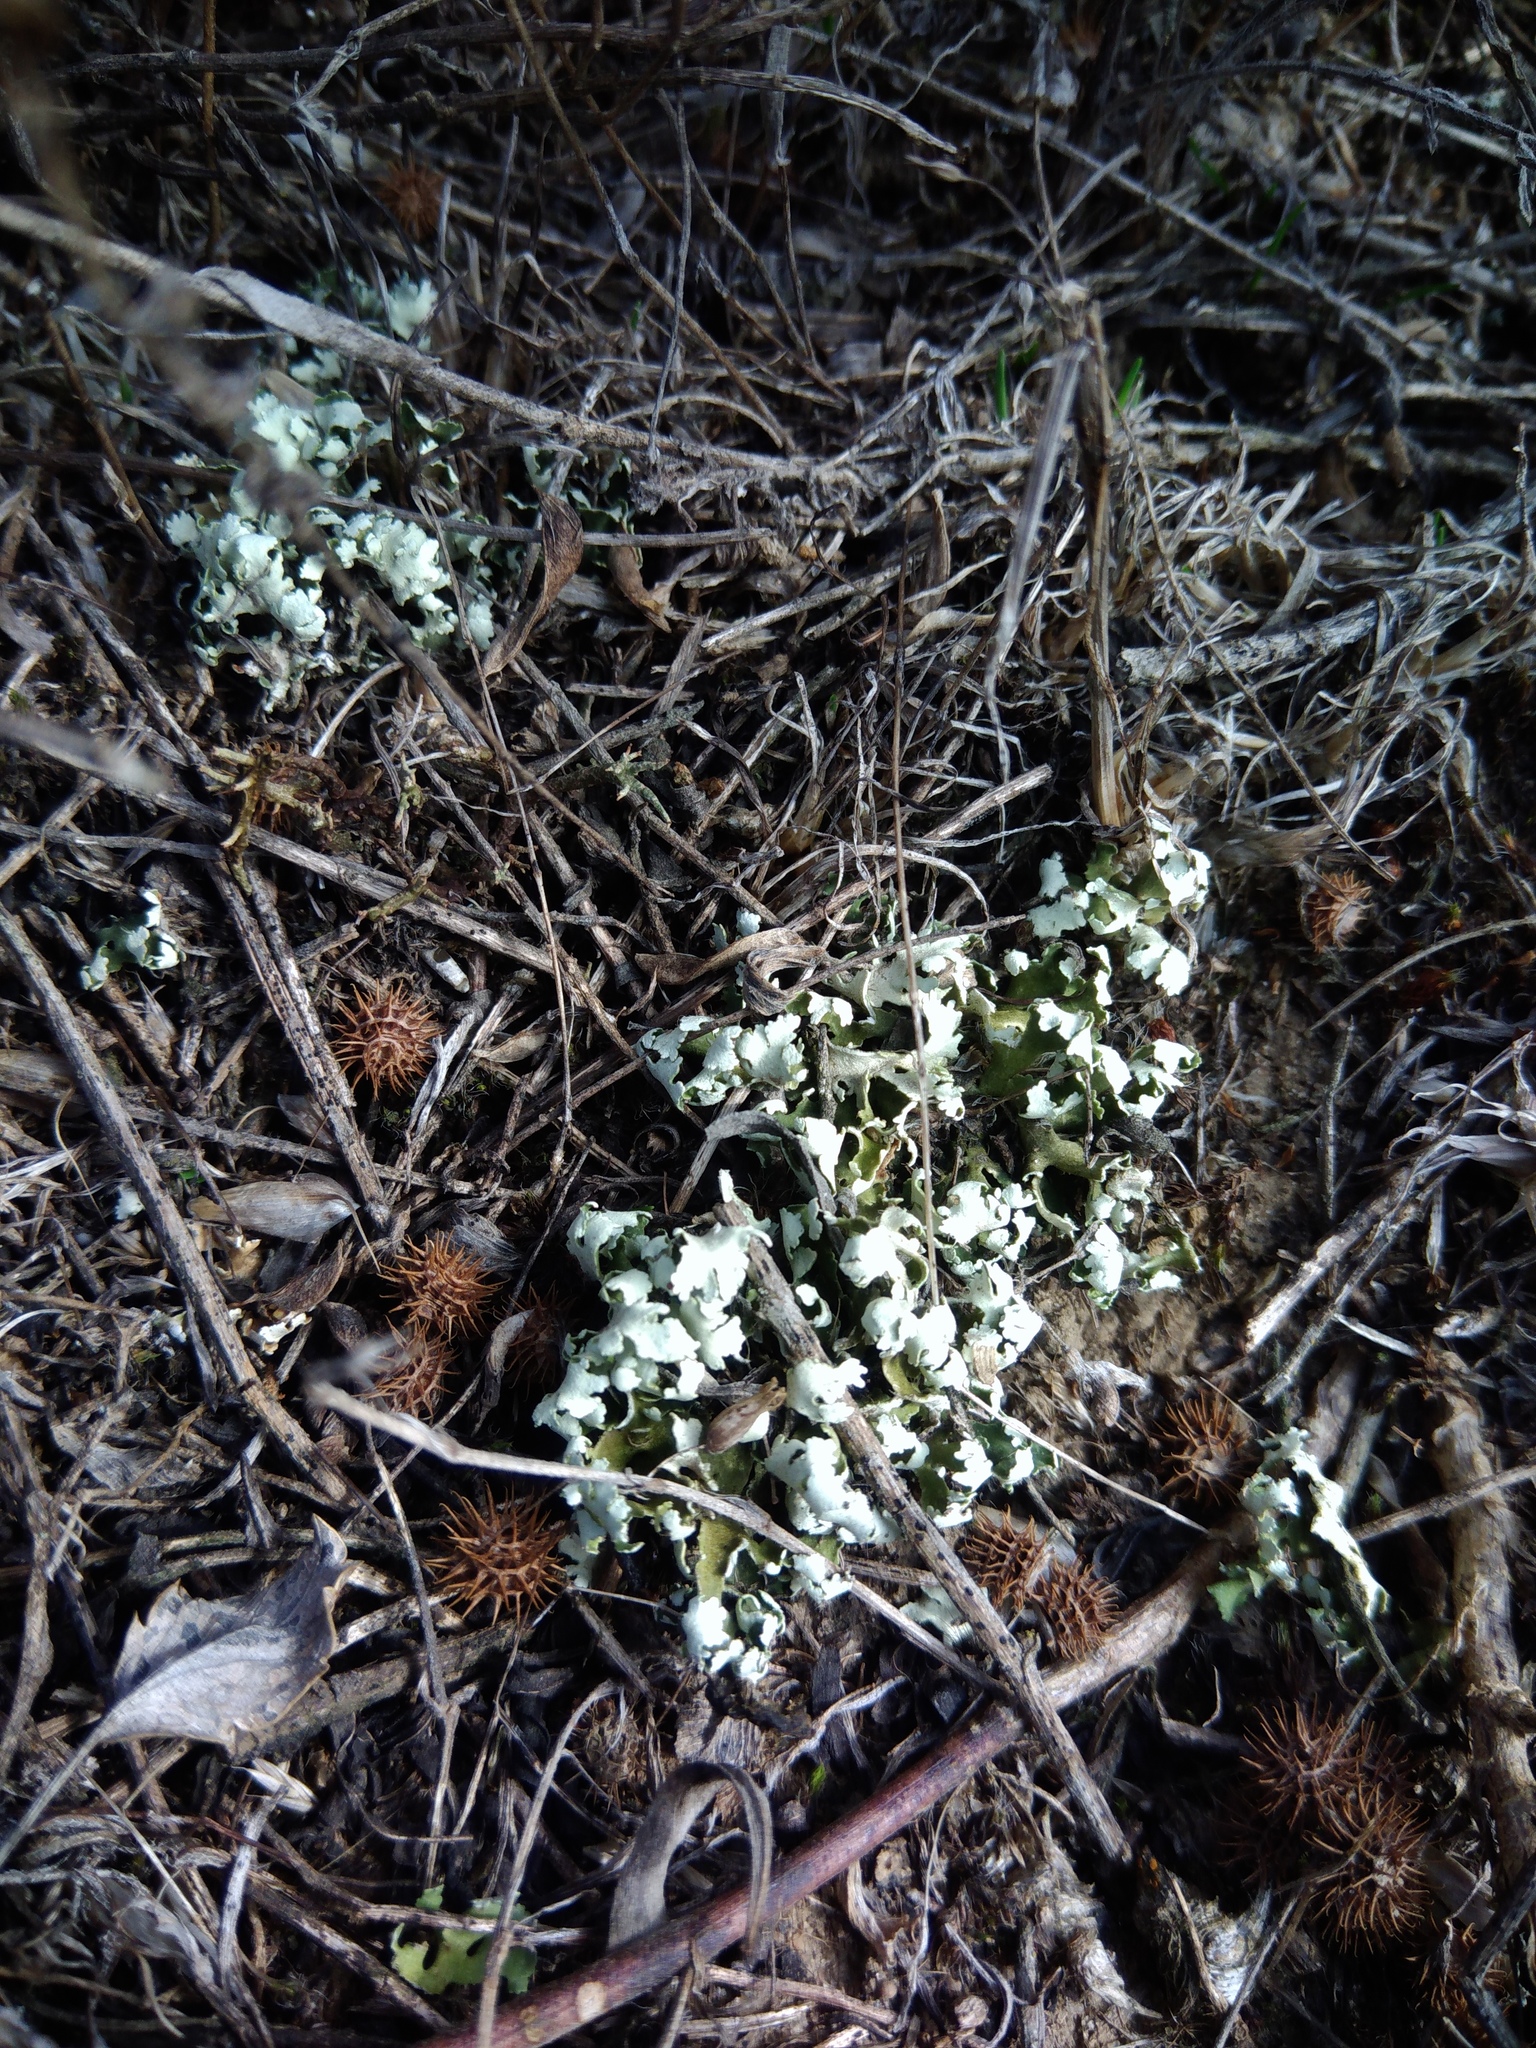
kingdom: Fungi
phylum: Ascomycota
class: Lecanoromycetes
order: Lecanorales
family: Cladoniaceae
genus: Cladonia
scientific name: Cladonia foliacea
